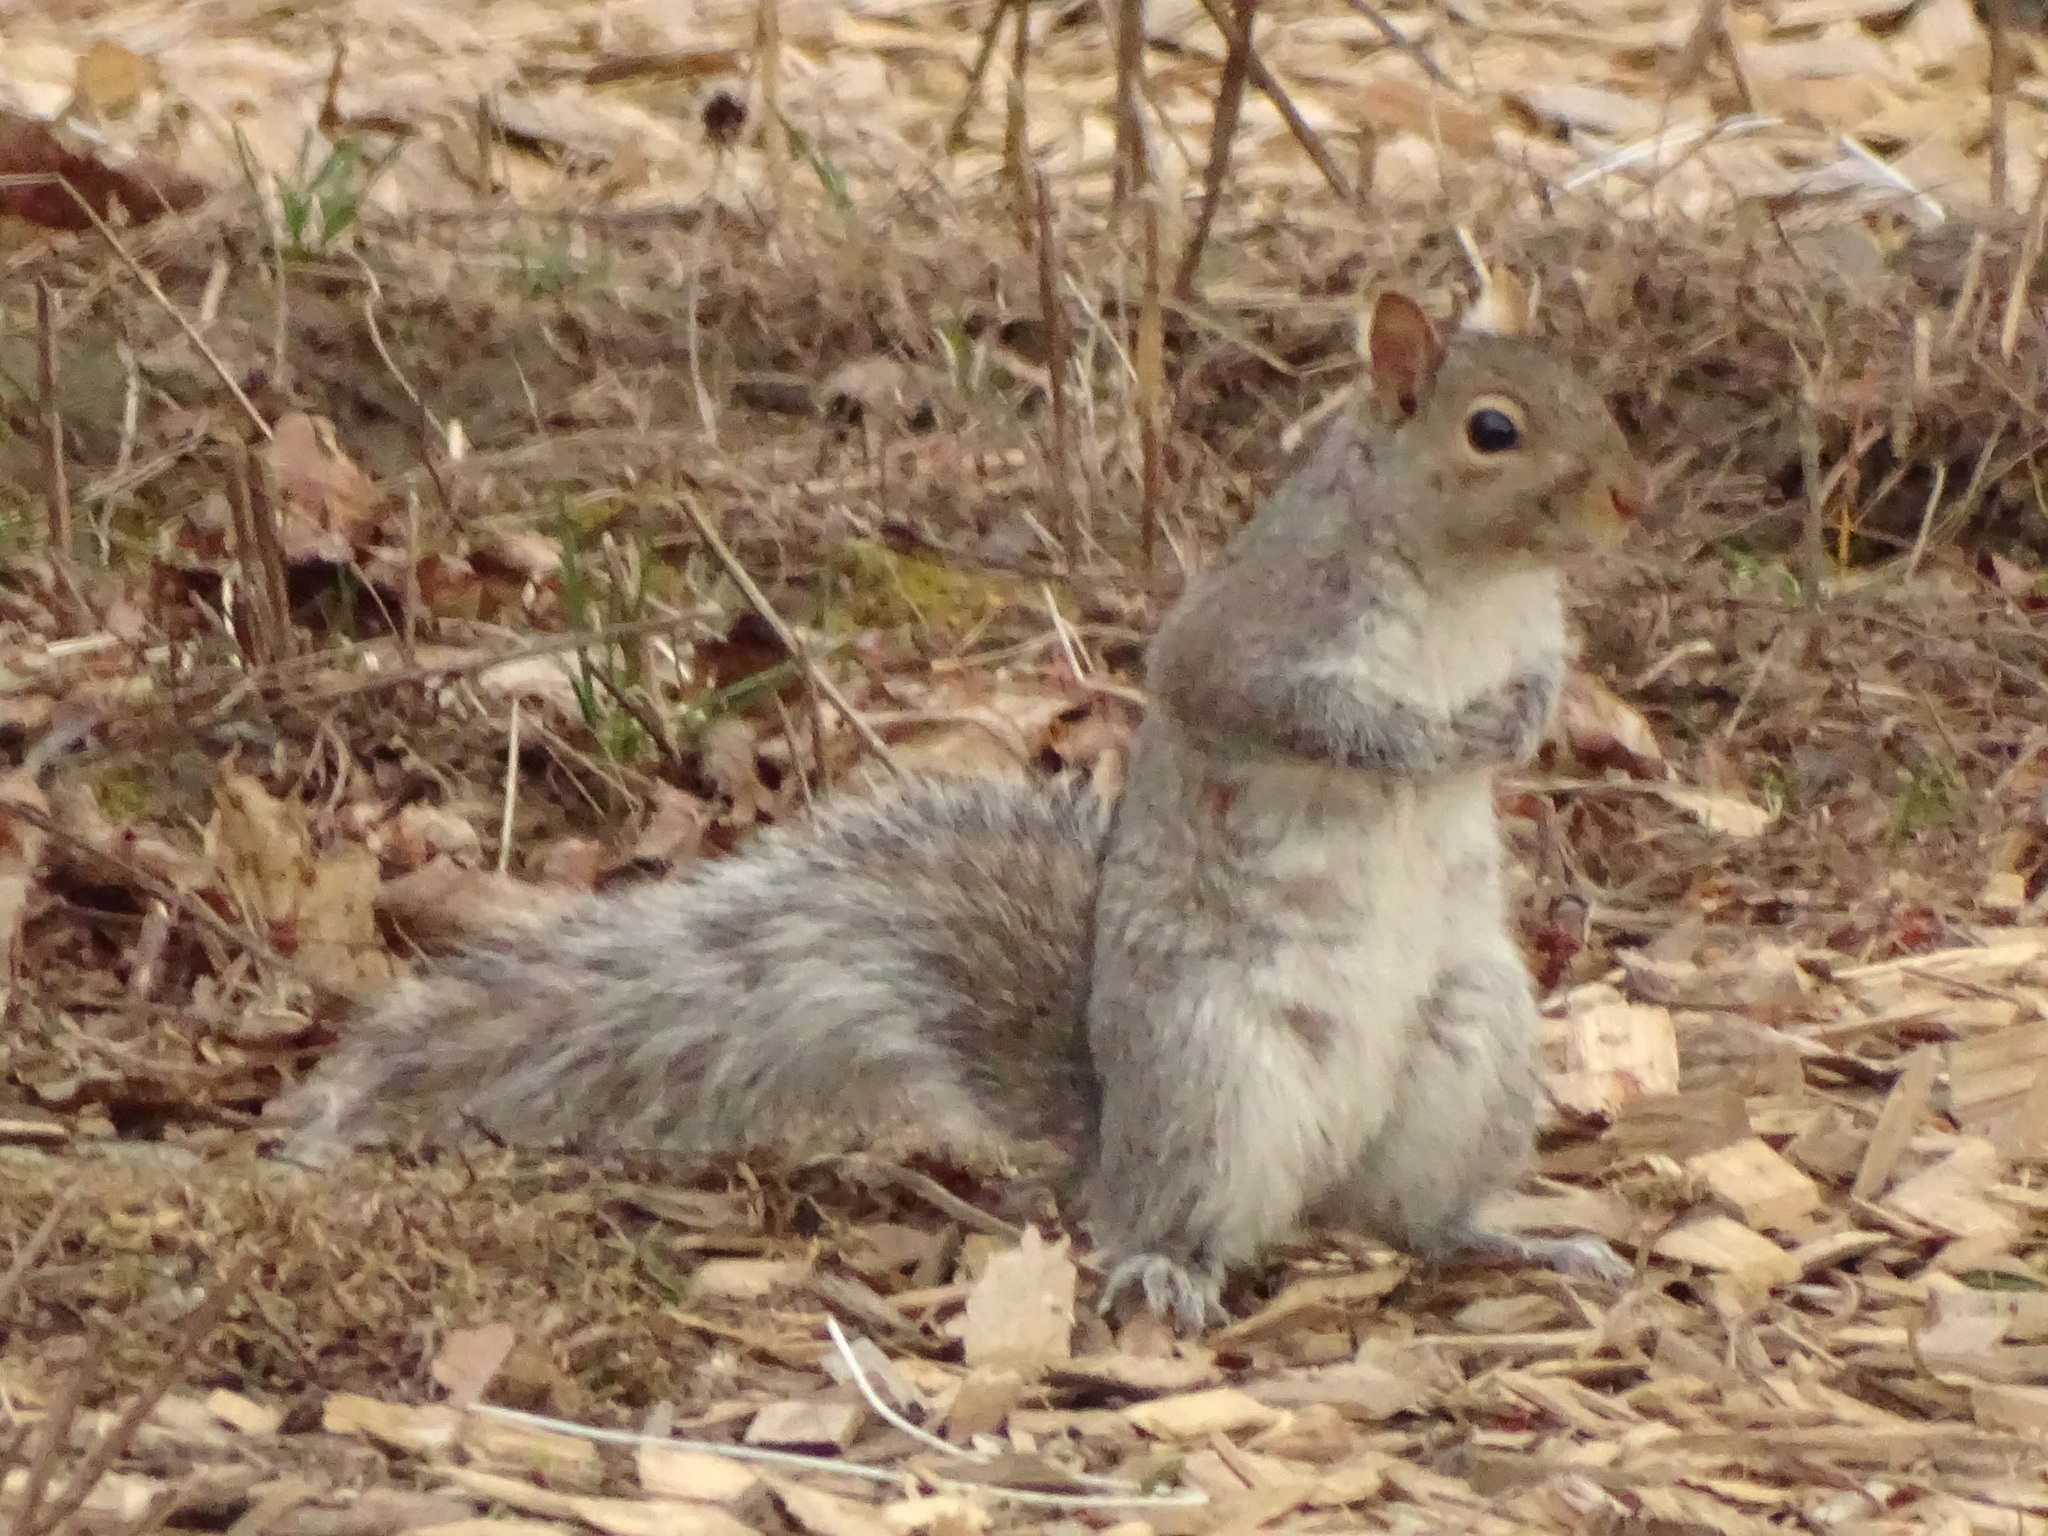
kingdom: Animalia
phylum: Chordata
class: Mammalia
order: Rodentia
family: Sciuridae
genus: Sciurus
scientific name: Sciurus carolinensis
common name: Eastern gray squirrel
